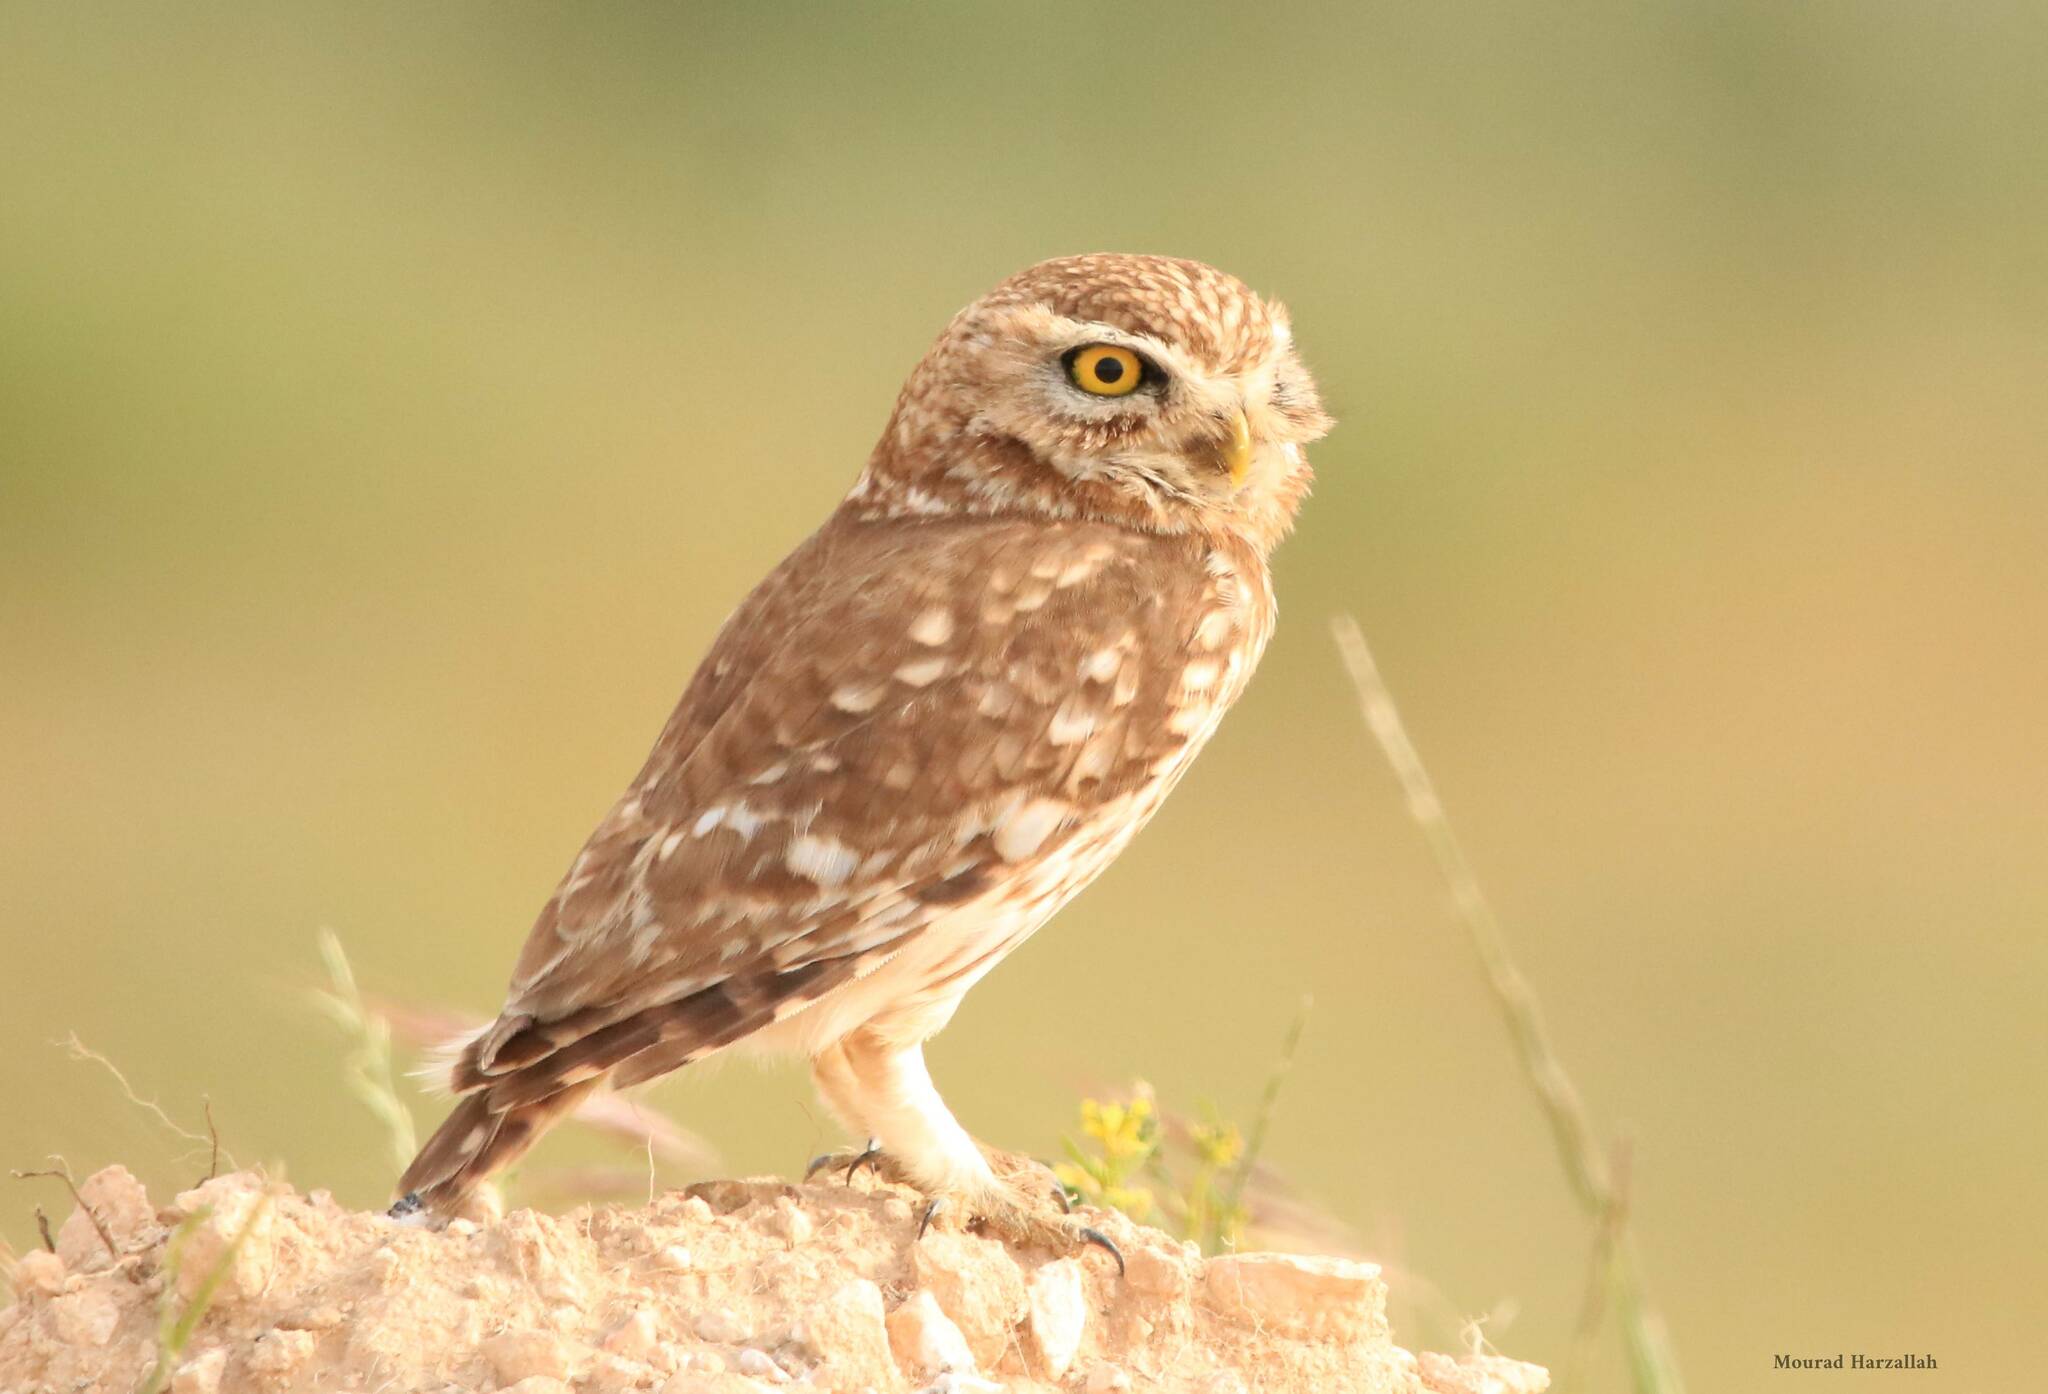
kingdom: Animalia
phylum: Chordata
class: Aves
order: Strigiformes
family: Strigidae
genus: Athene
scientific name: Athene noctua
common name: Little owl
